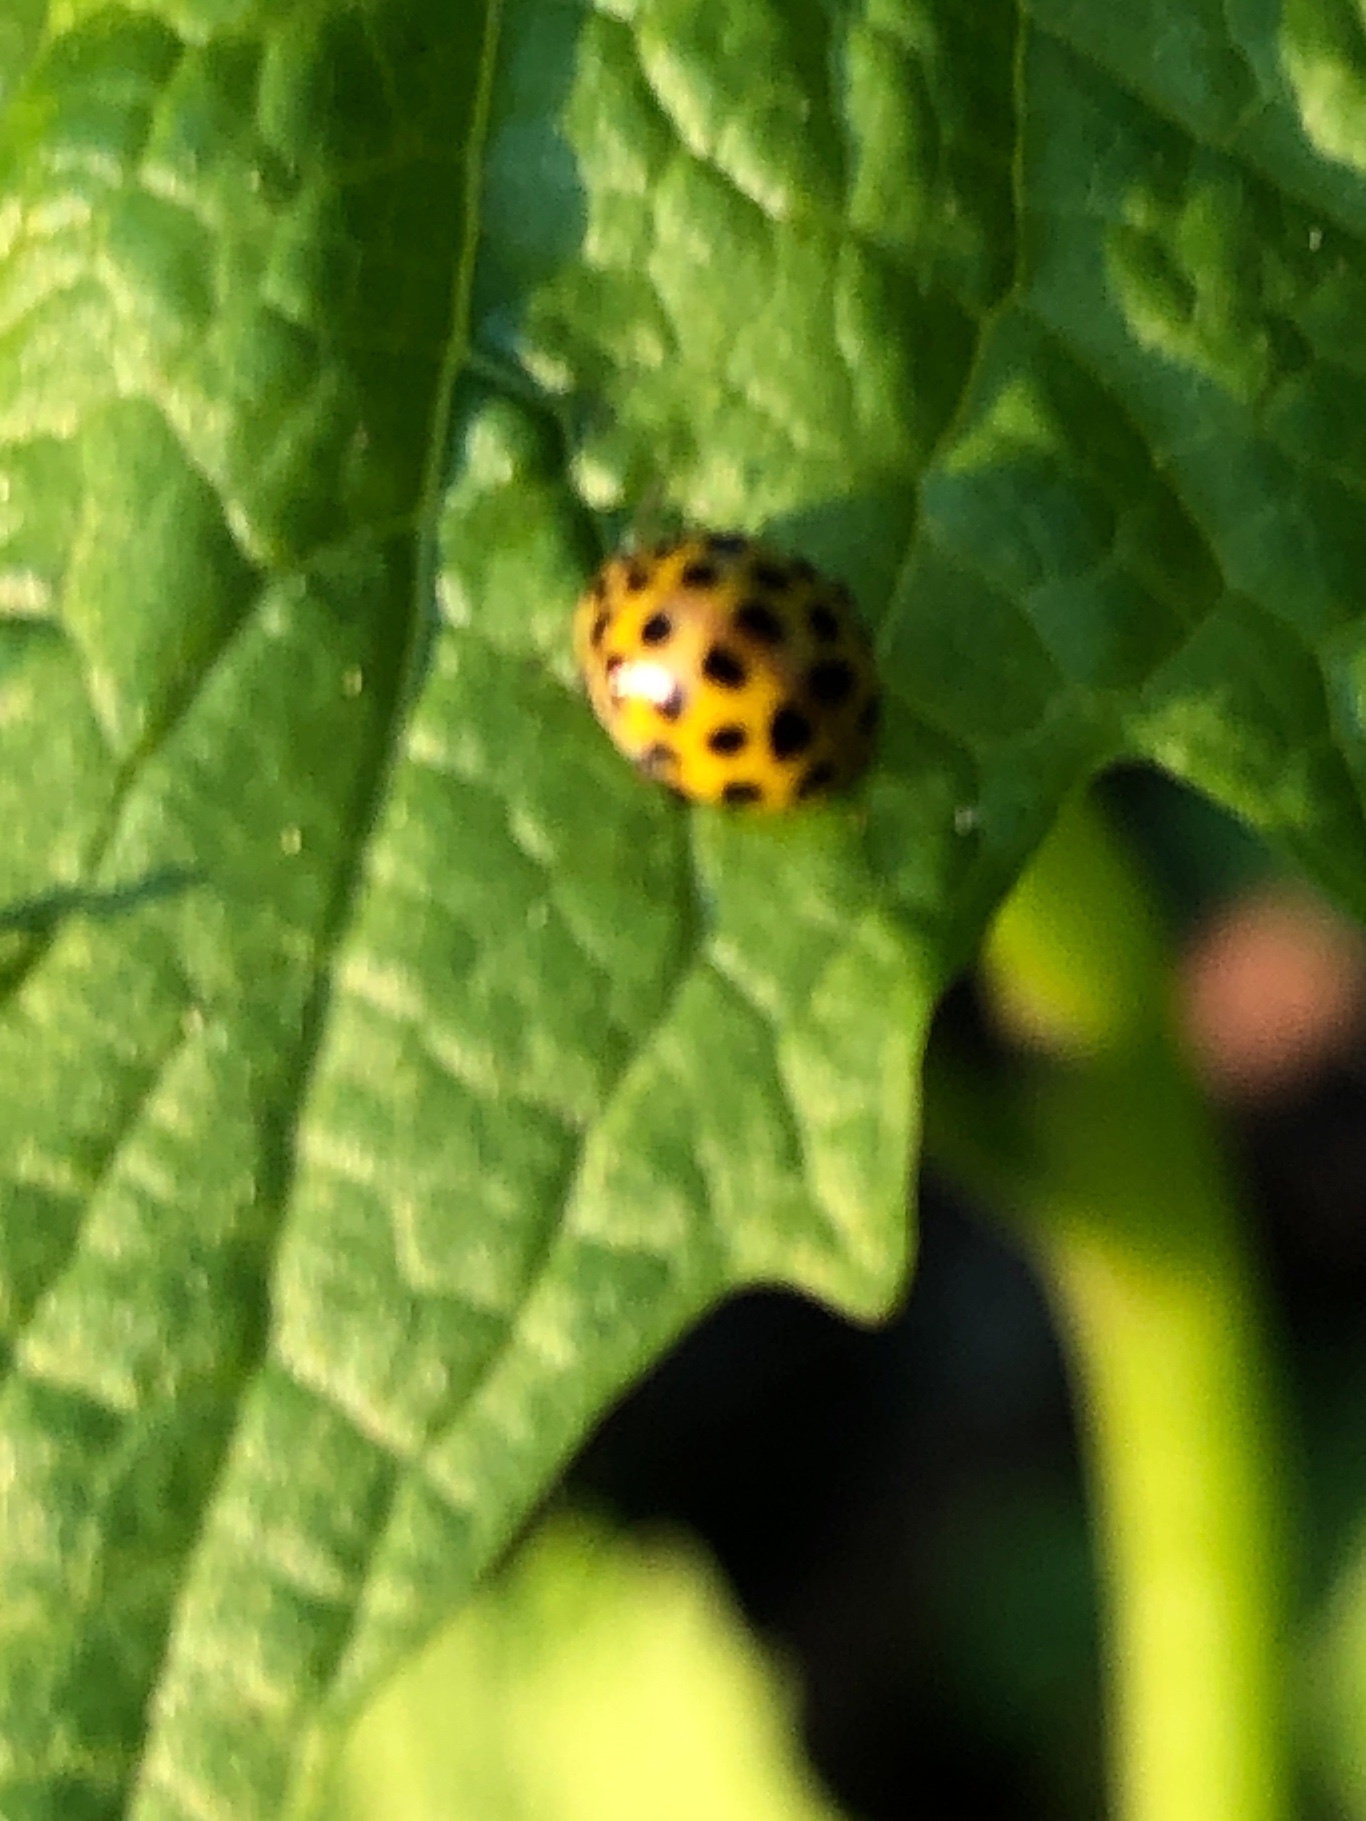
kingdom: Animalia
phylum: Arthropoda
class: Insecta
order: Coleoptera
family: Coccinellidae
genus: Psyllobora
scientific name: Psyllobora vigintiduopunctata
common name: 22-spot ladybird
